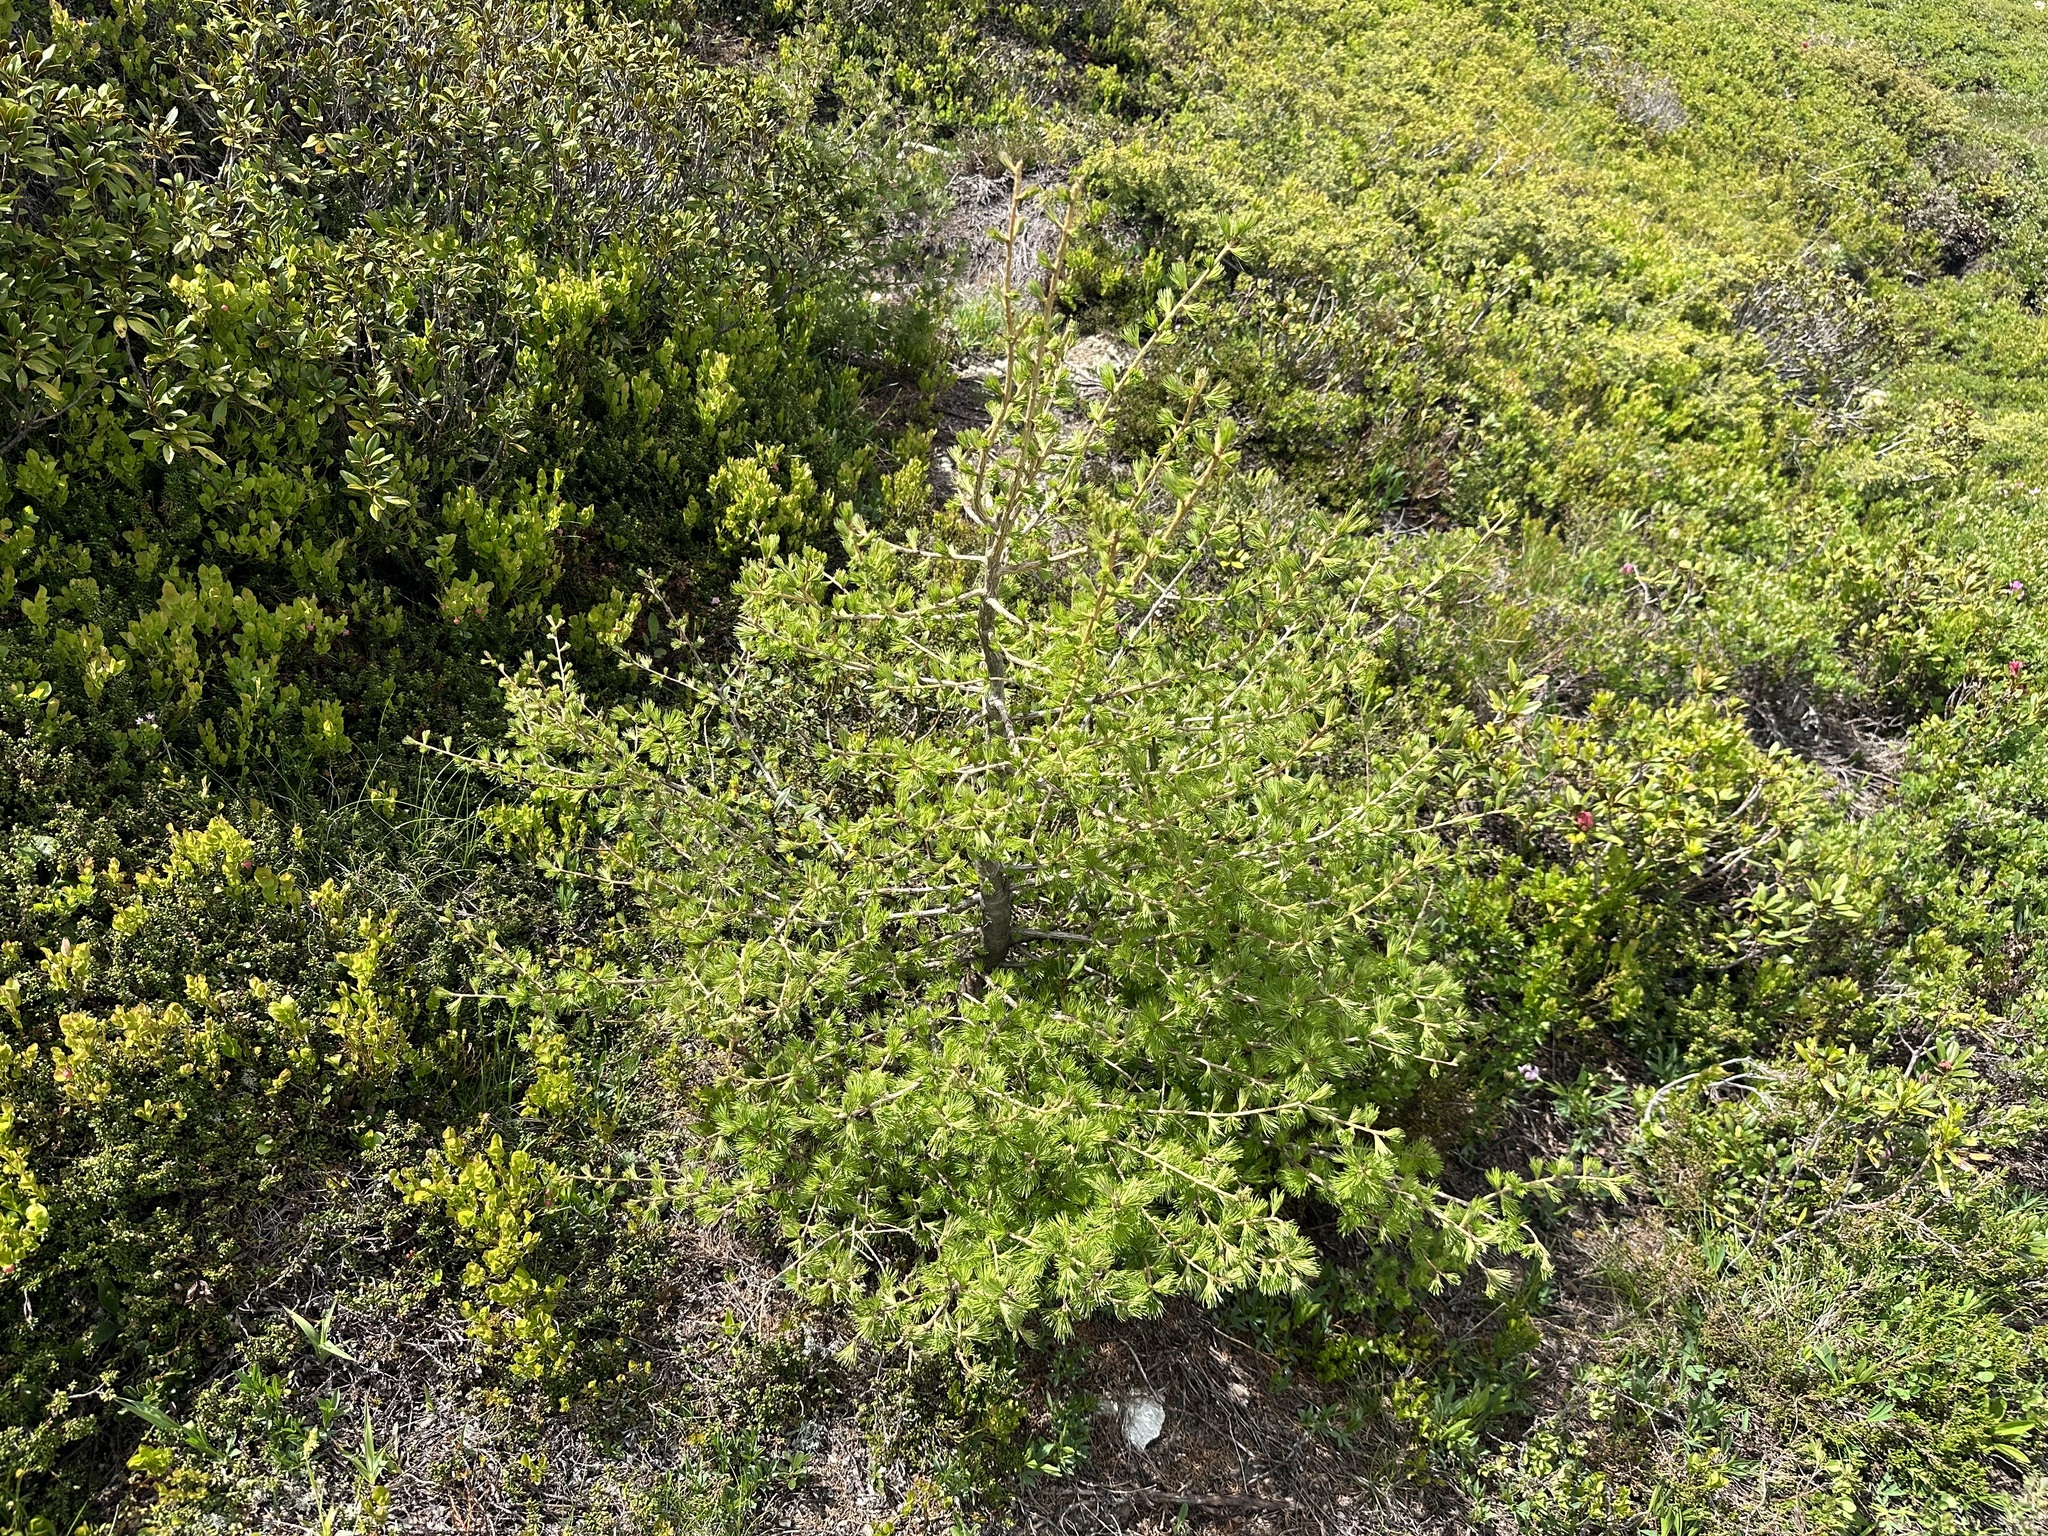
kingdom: Plantae
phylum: Tracheophyta
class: Pinopsida
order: Pinales
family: Pinaceae
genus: Larix
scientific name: Larix decidua
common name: European larch
